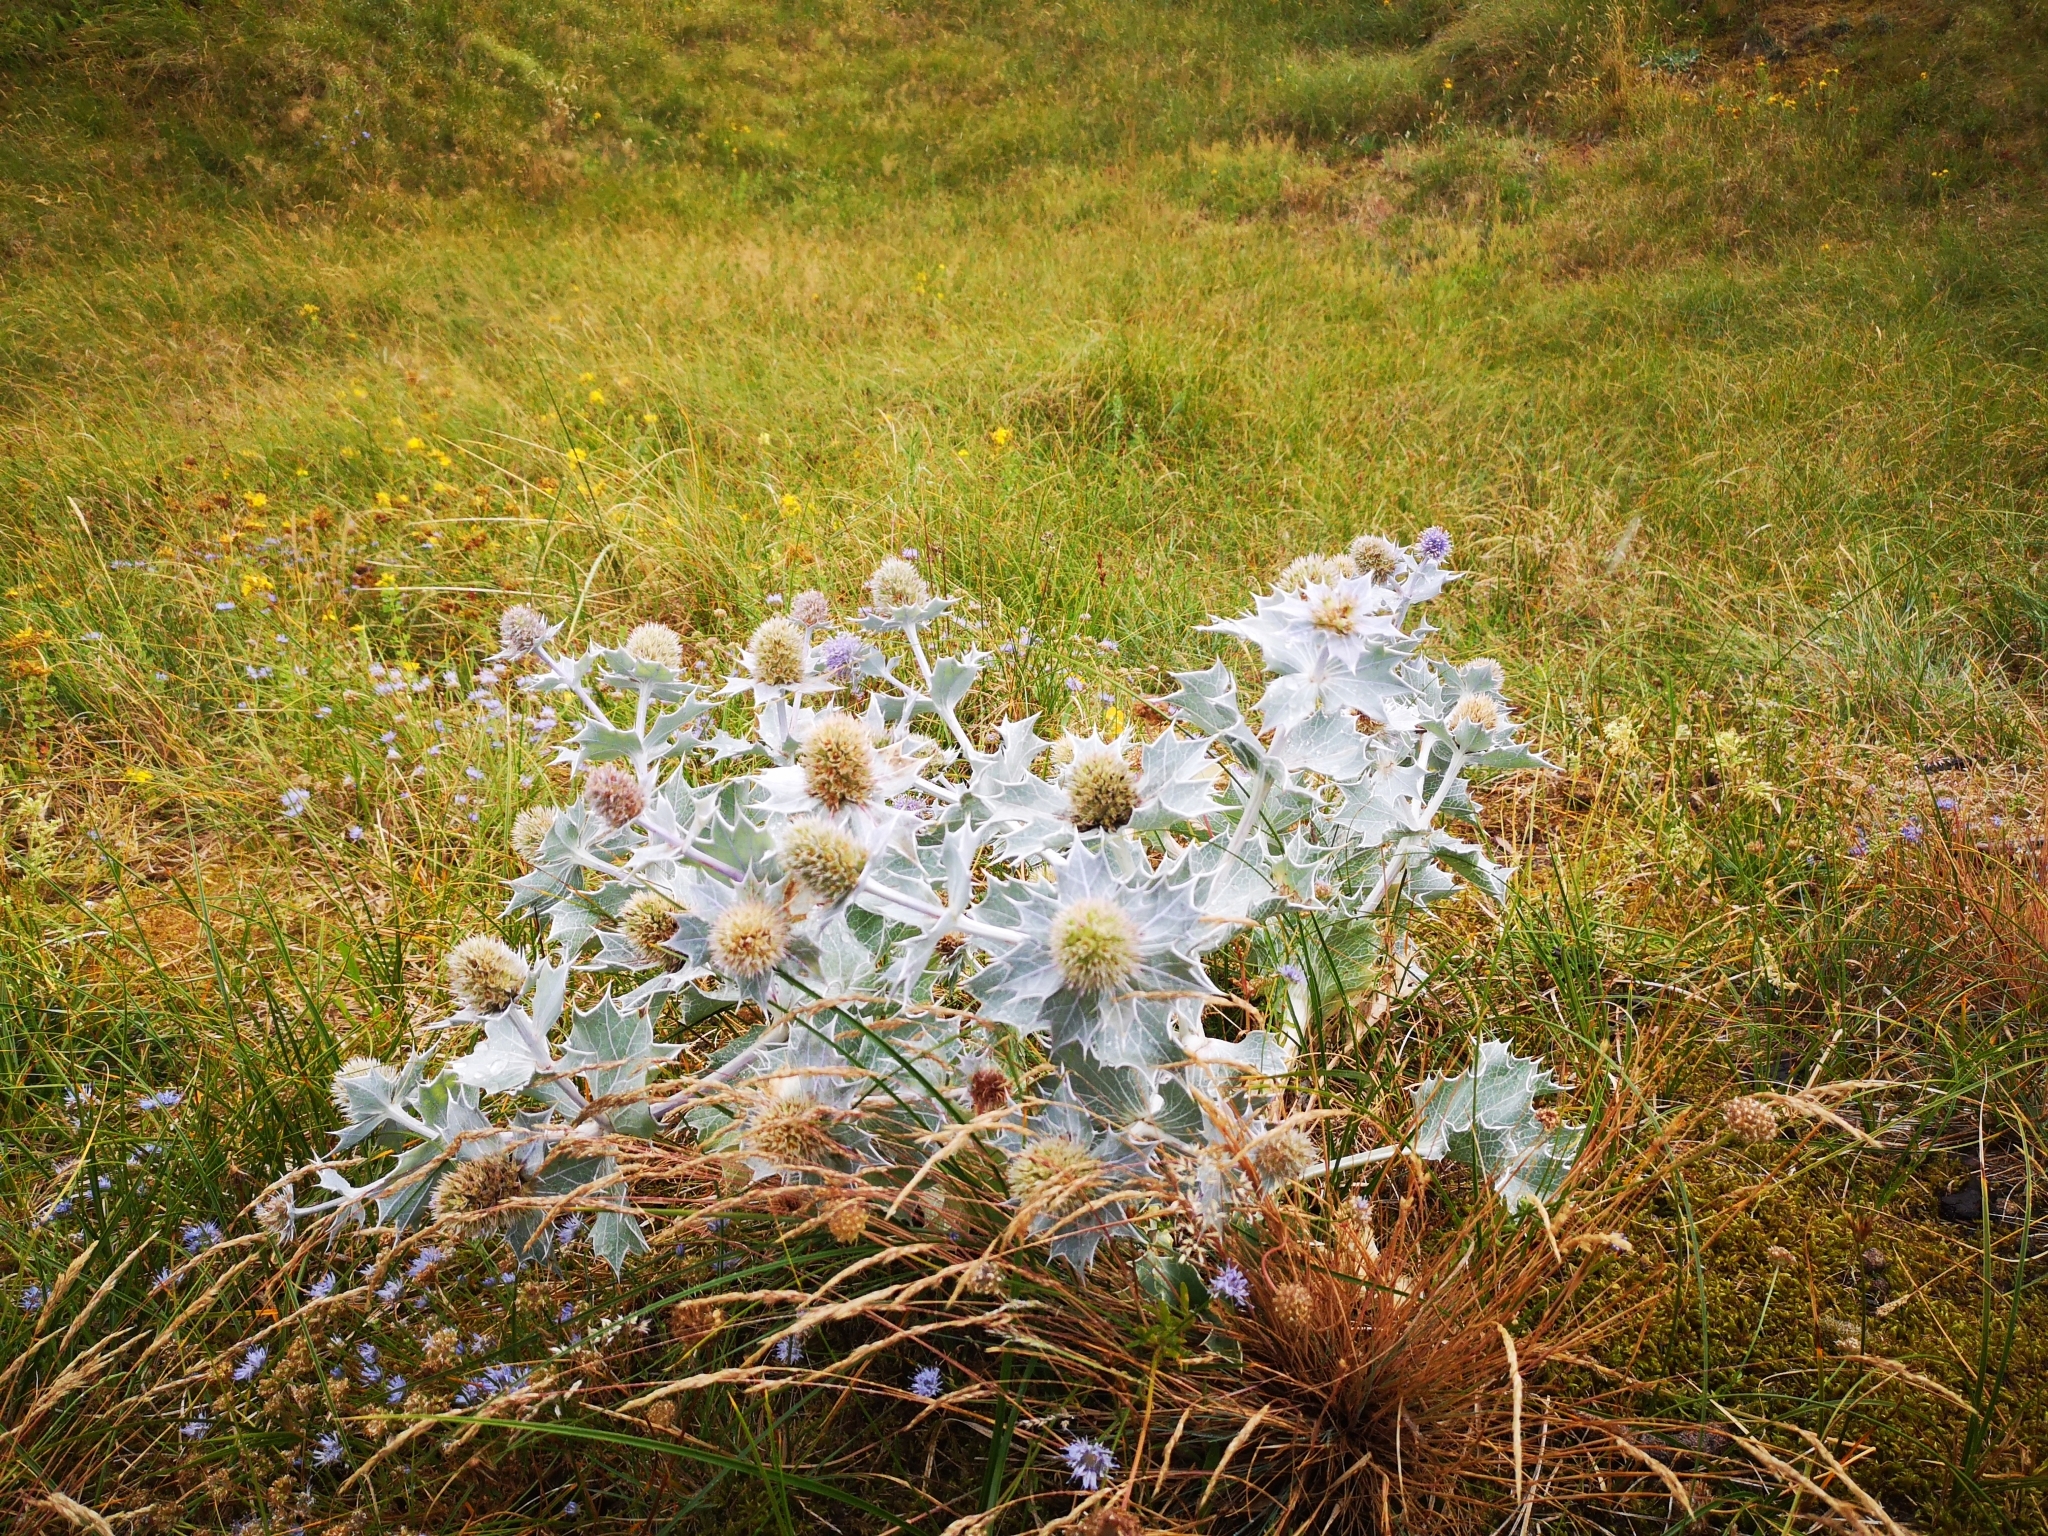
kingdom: Plantae
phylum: Tracheophyta
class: Magnoliopsida
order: Apiales
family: Apiaceae
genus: Eryngium
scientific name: Eryngium maritimum
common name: Sea-holly
